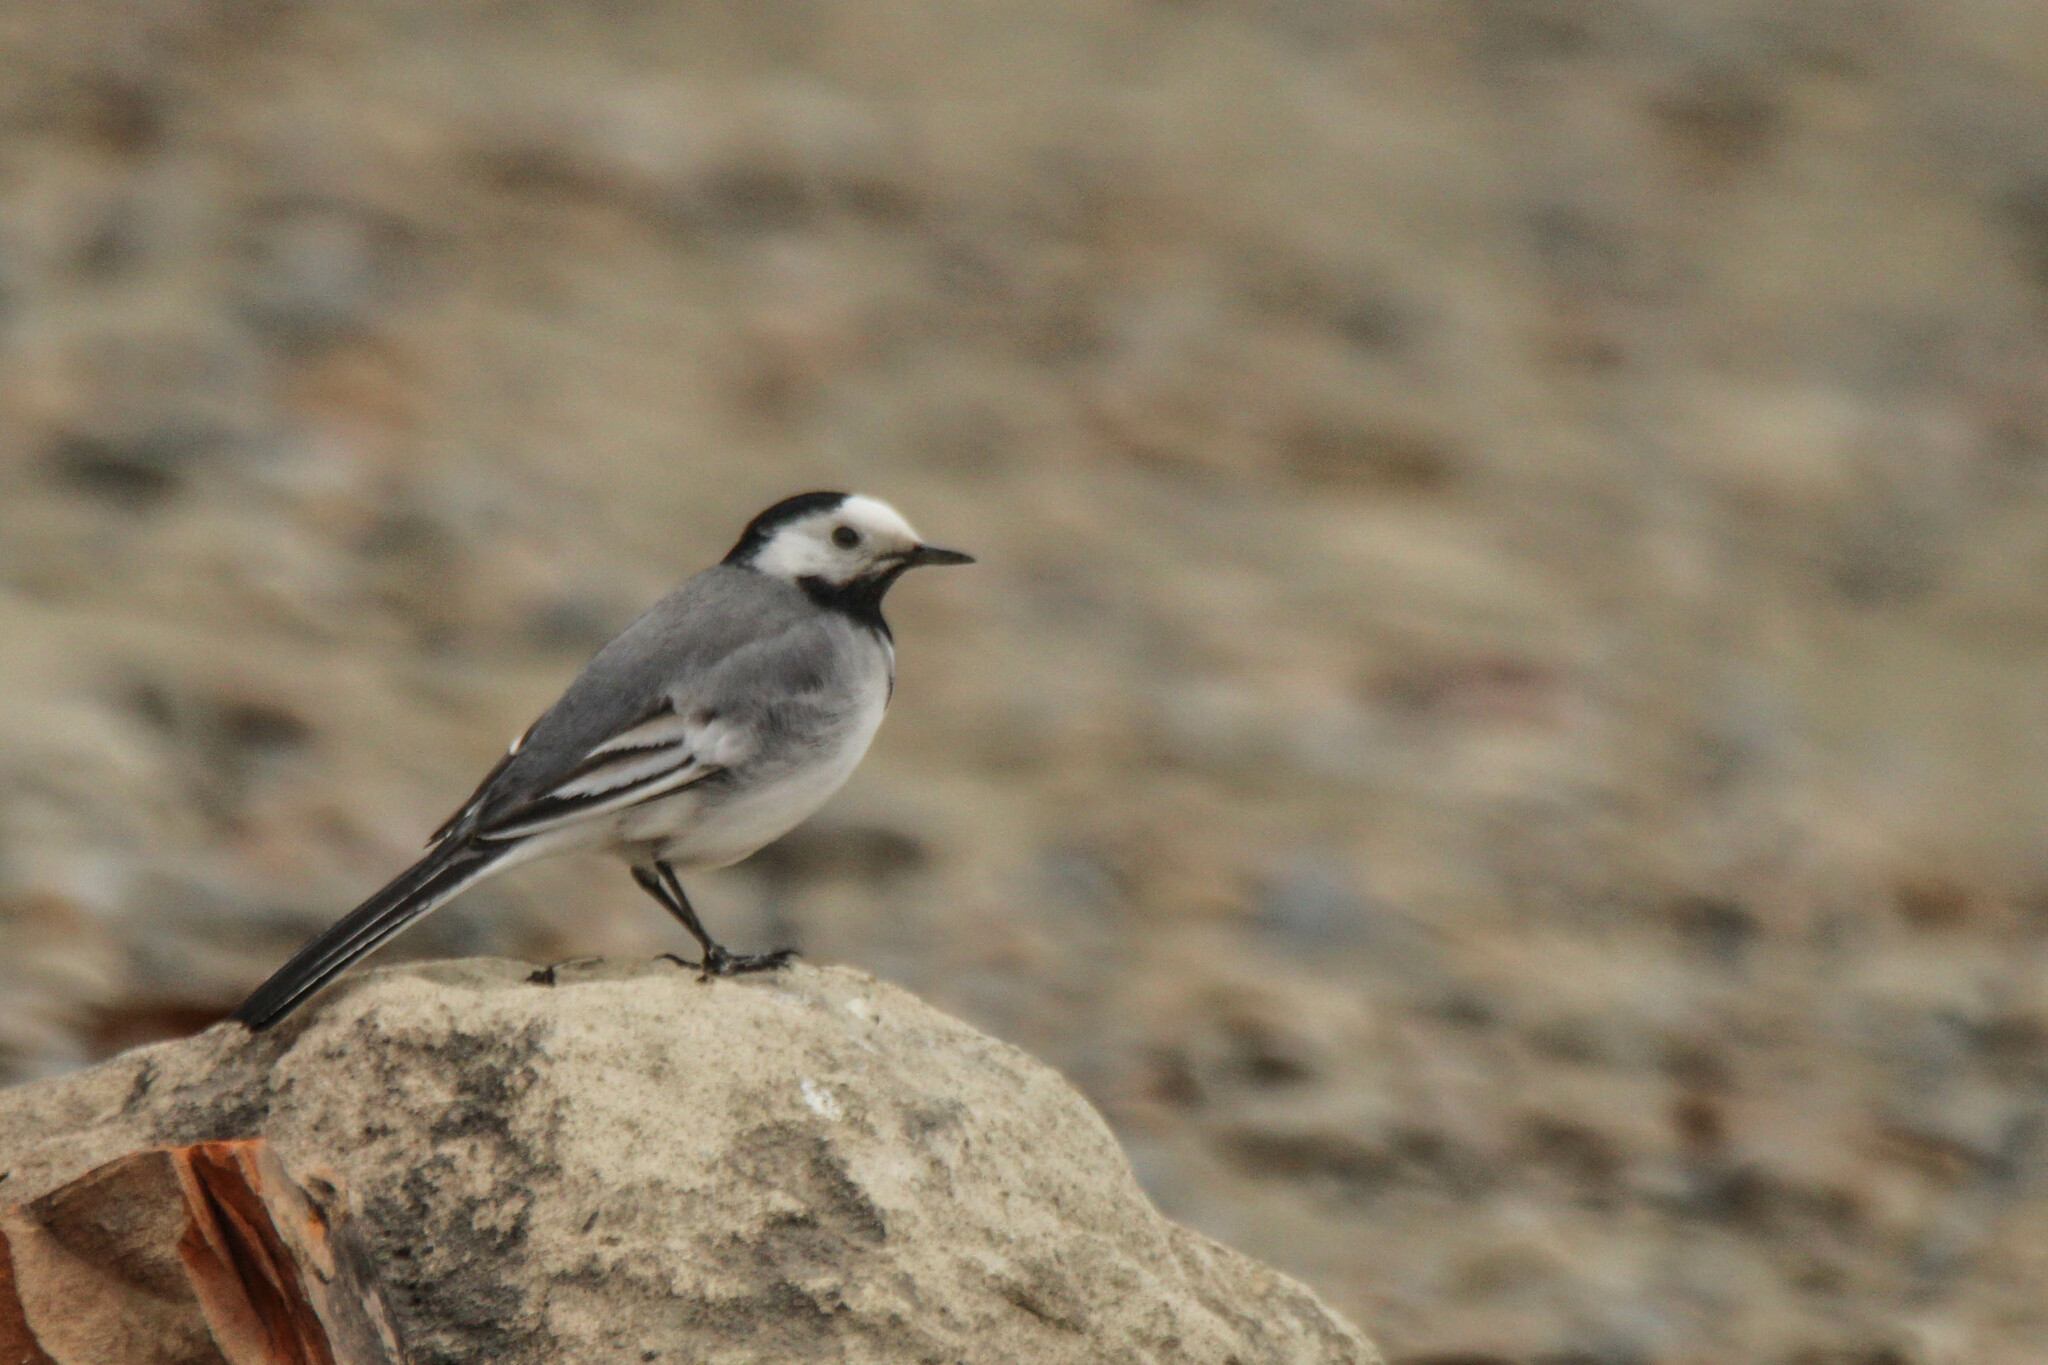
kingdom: Animalia
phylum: Chordata
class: Aves
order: Passeriformes
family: Motacillidae
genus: Motacilla
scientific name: Motacilla alba
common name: White wagtail
